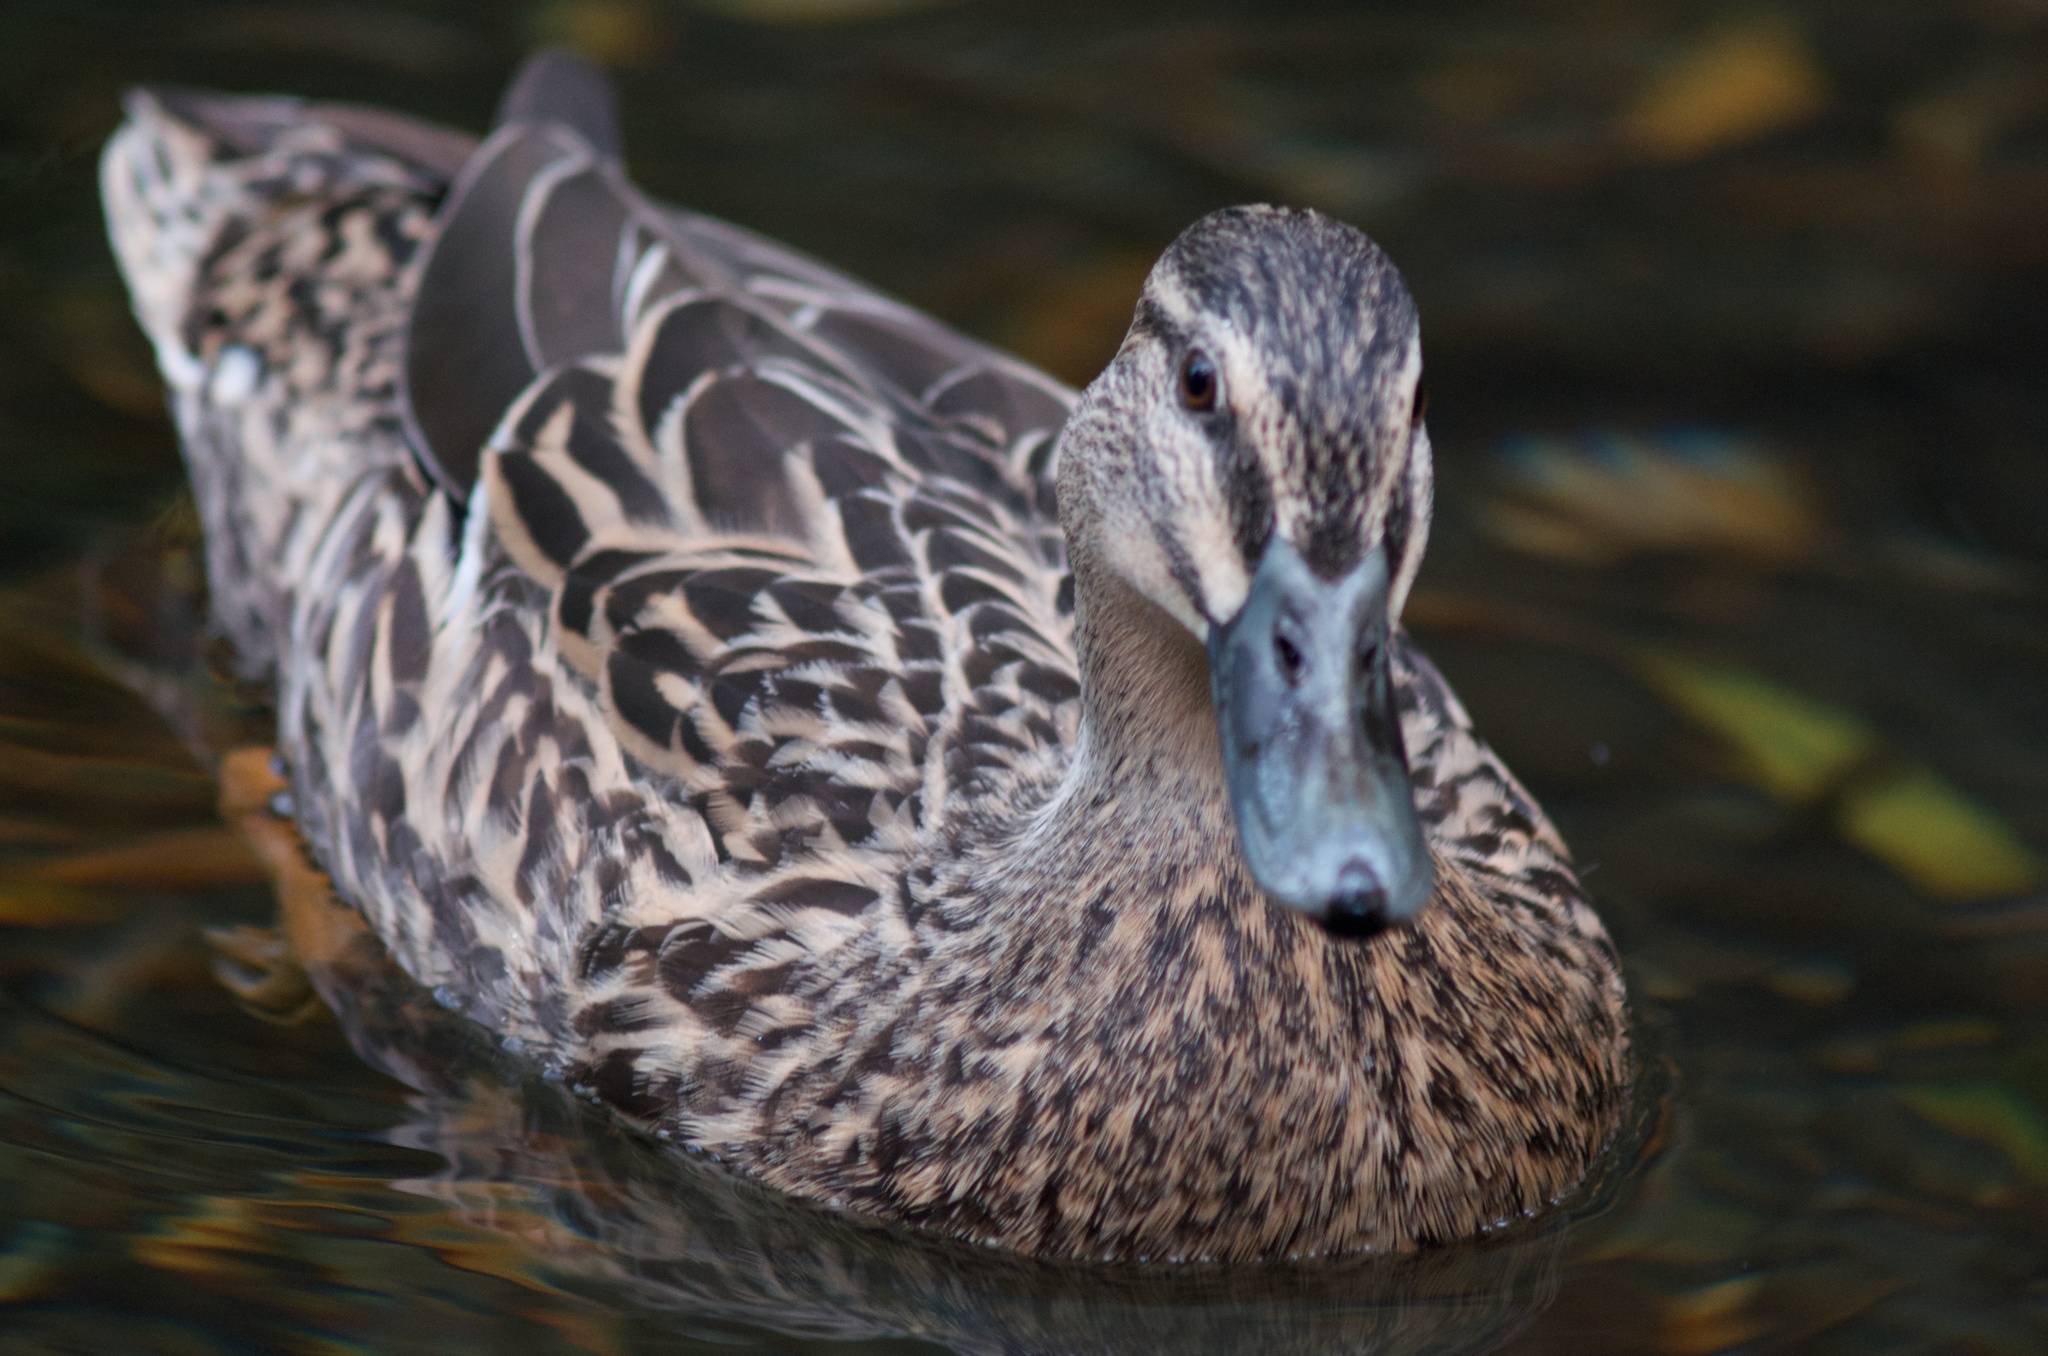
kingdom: Animalia
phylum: Chordata
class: Aves
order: Anseriformes
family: Anatidae
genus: Anas
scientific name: Anas
